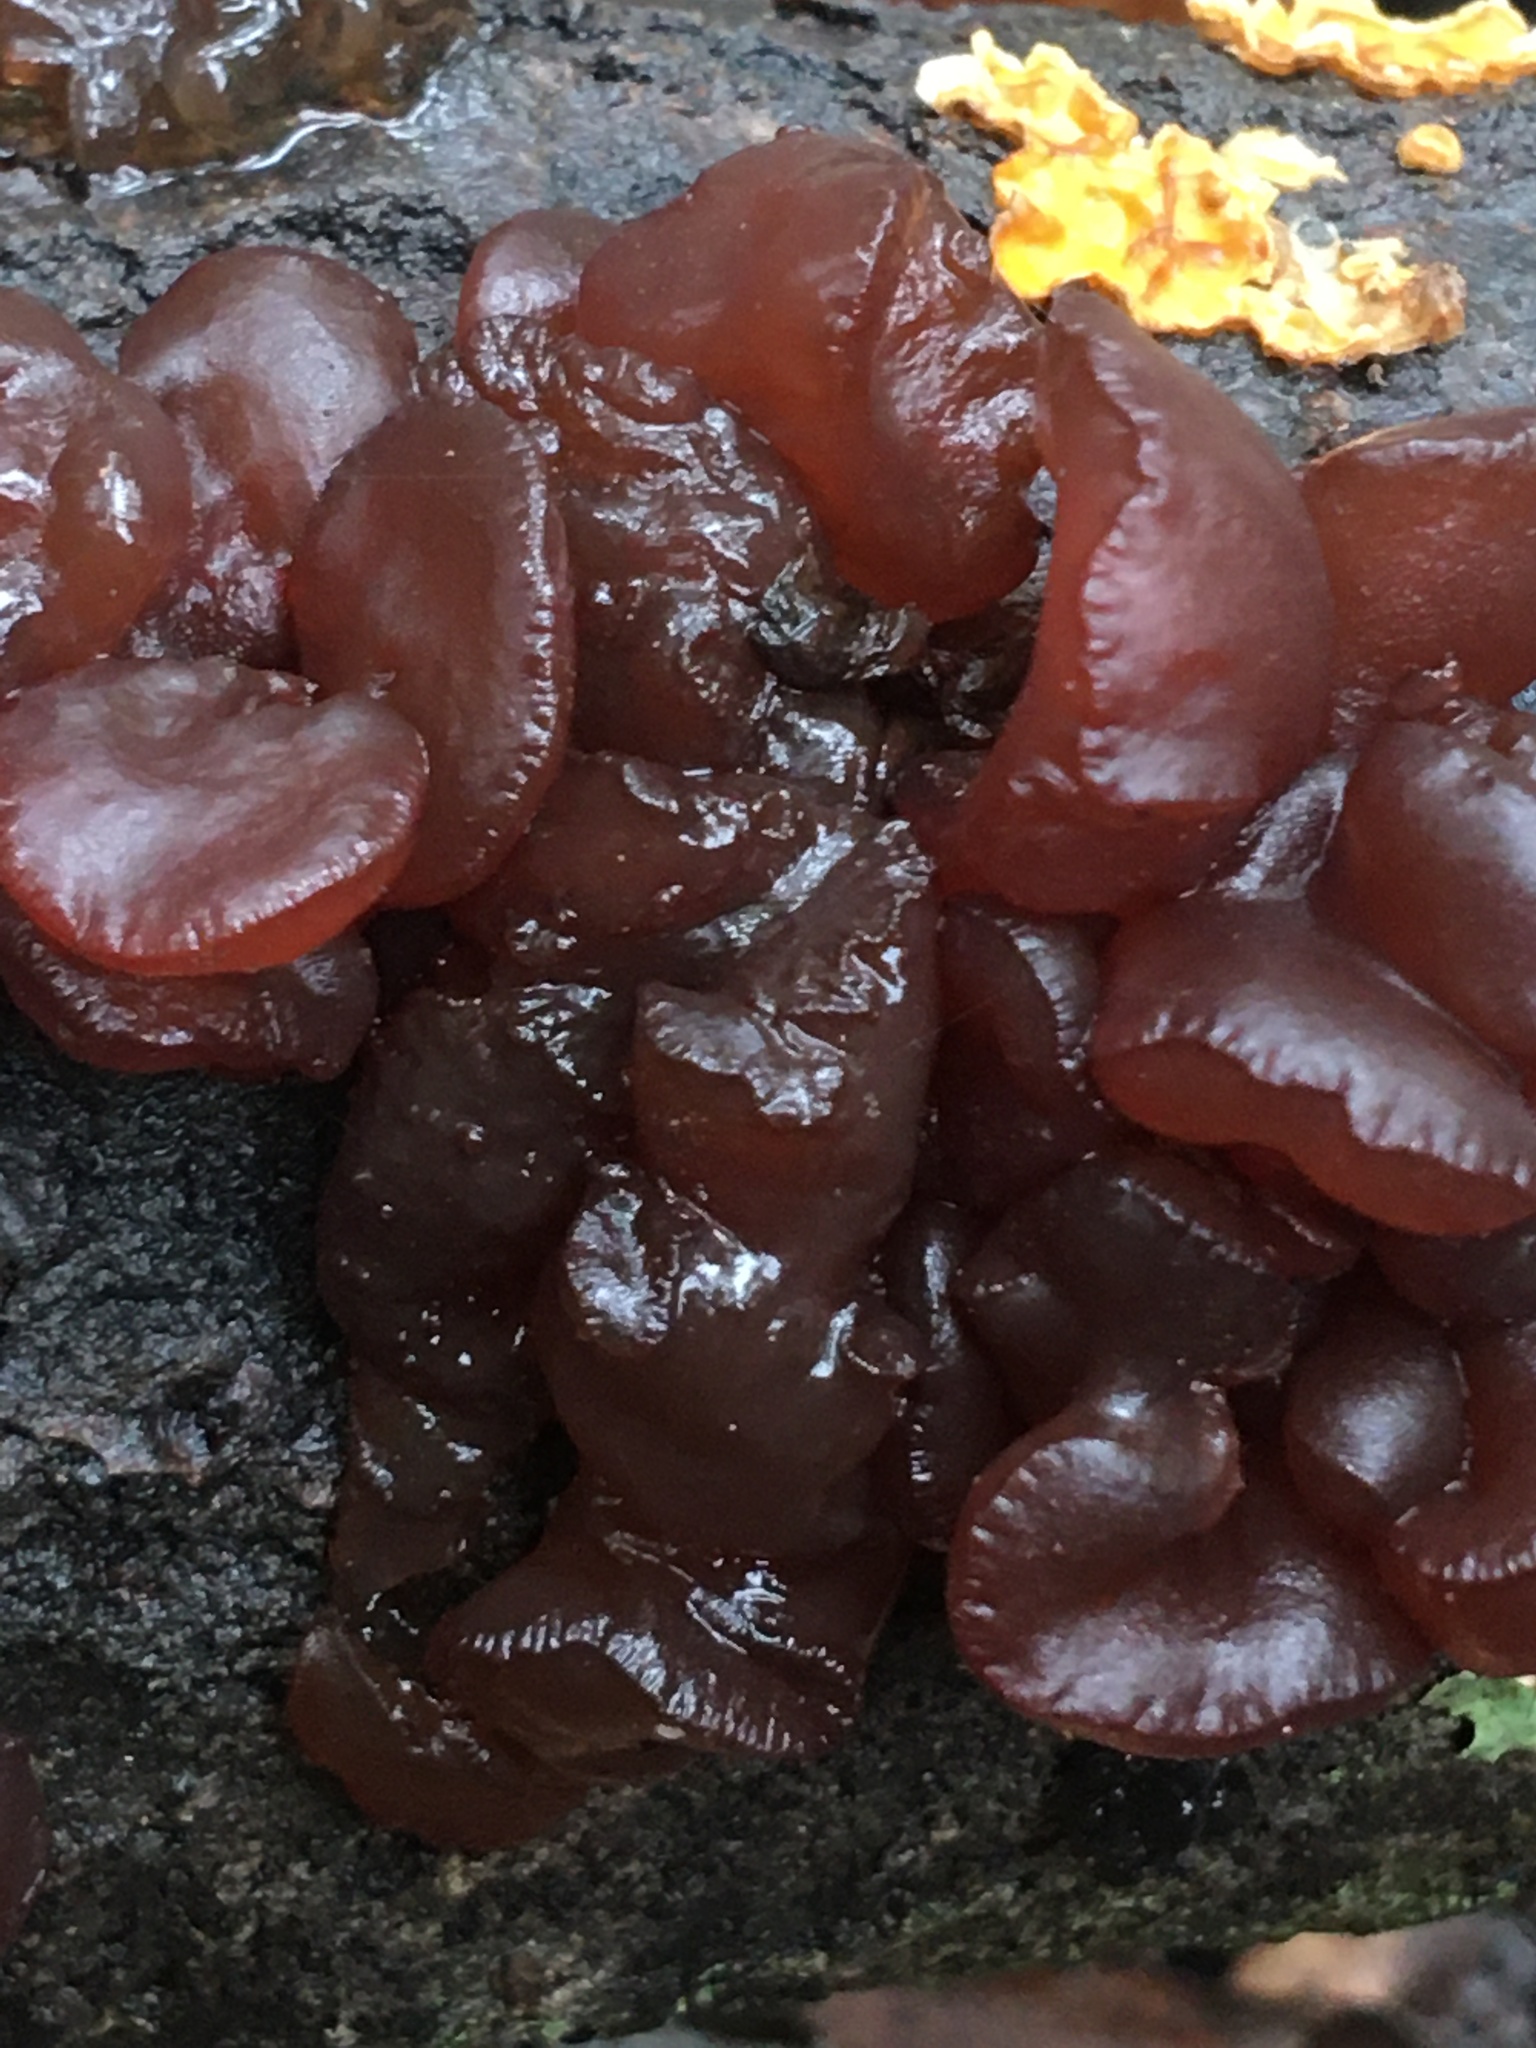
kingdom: Fungi
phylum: Basidiomycota
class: Agaricomycetes
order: Auriculariales
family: Auriculariaceae
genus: Exidia
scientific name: Exidia
